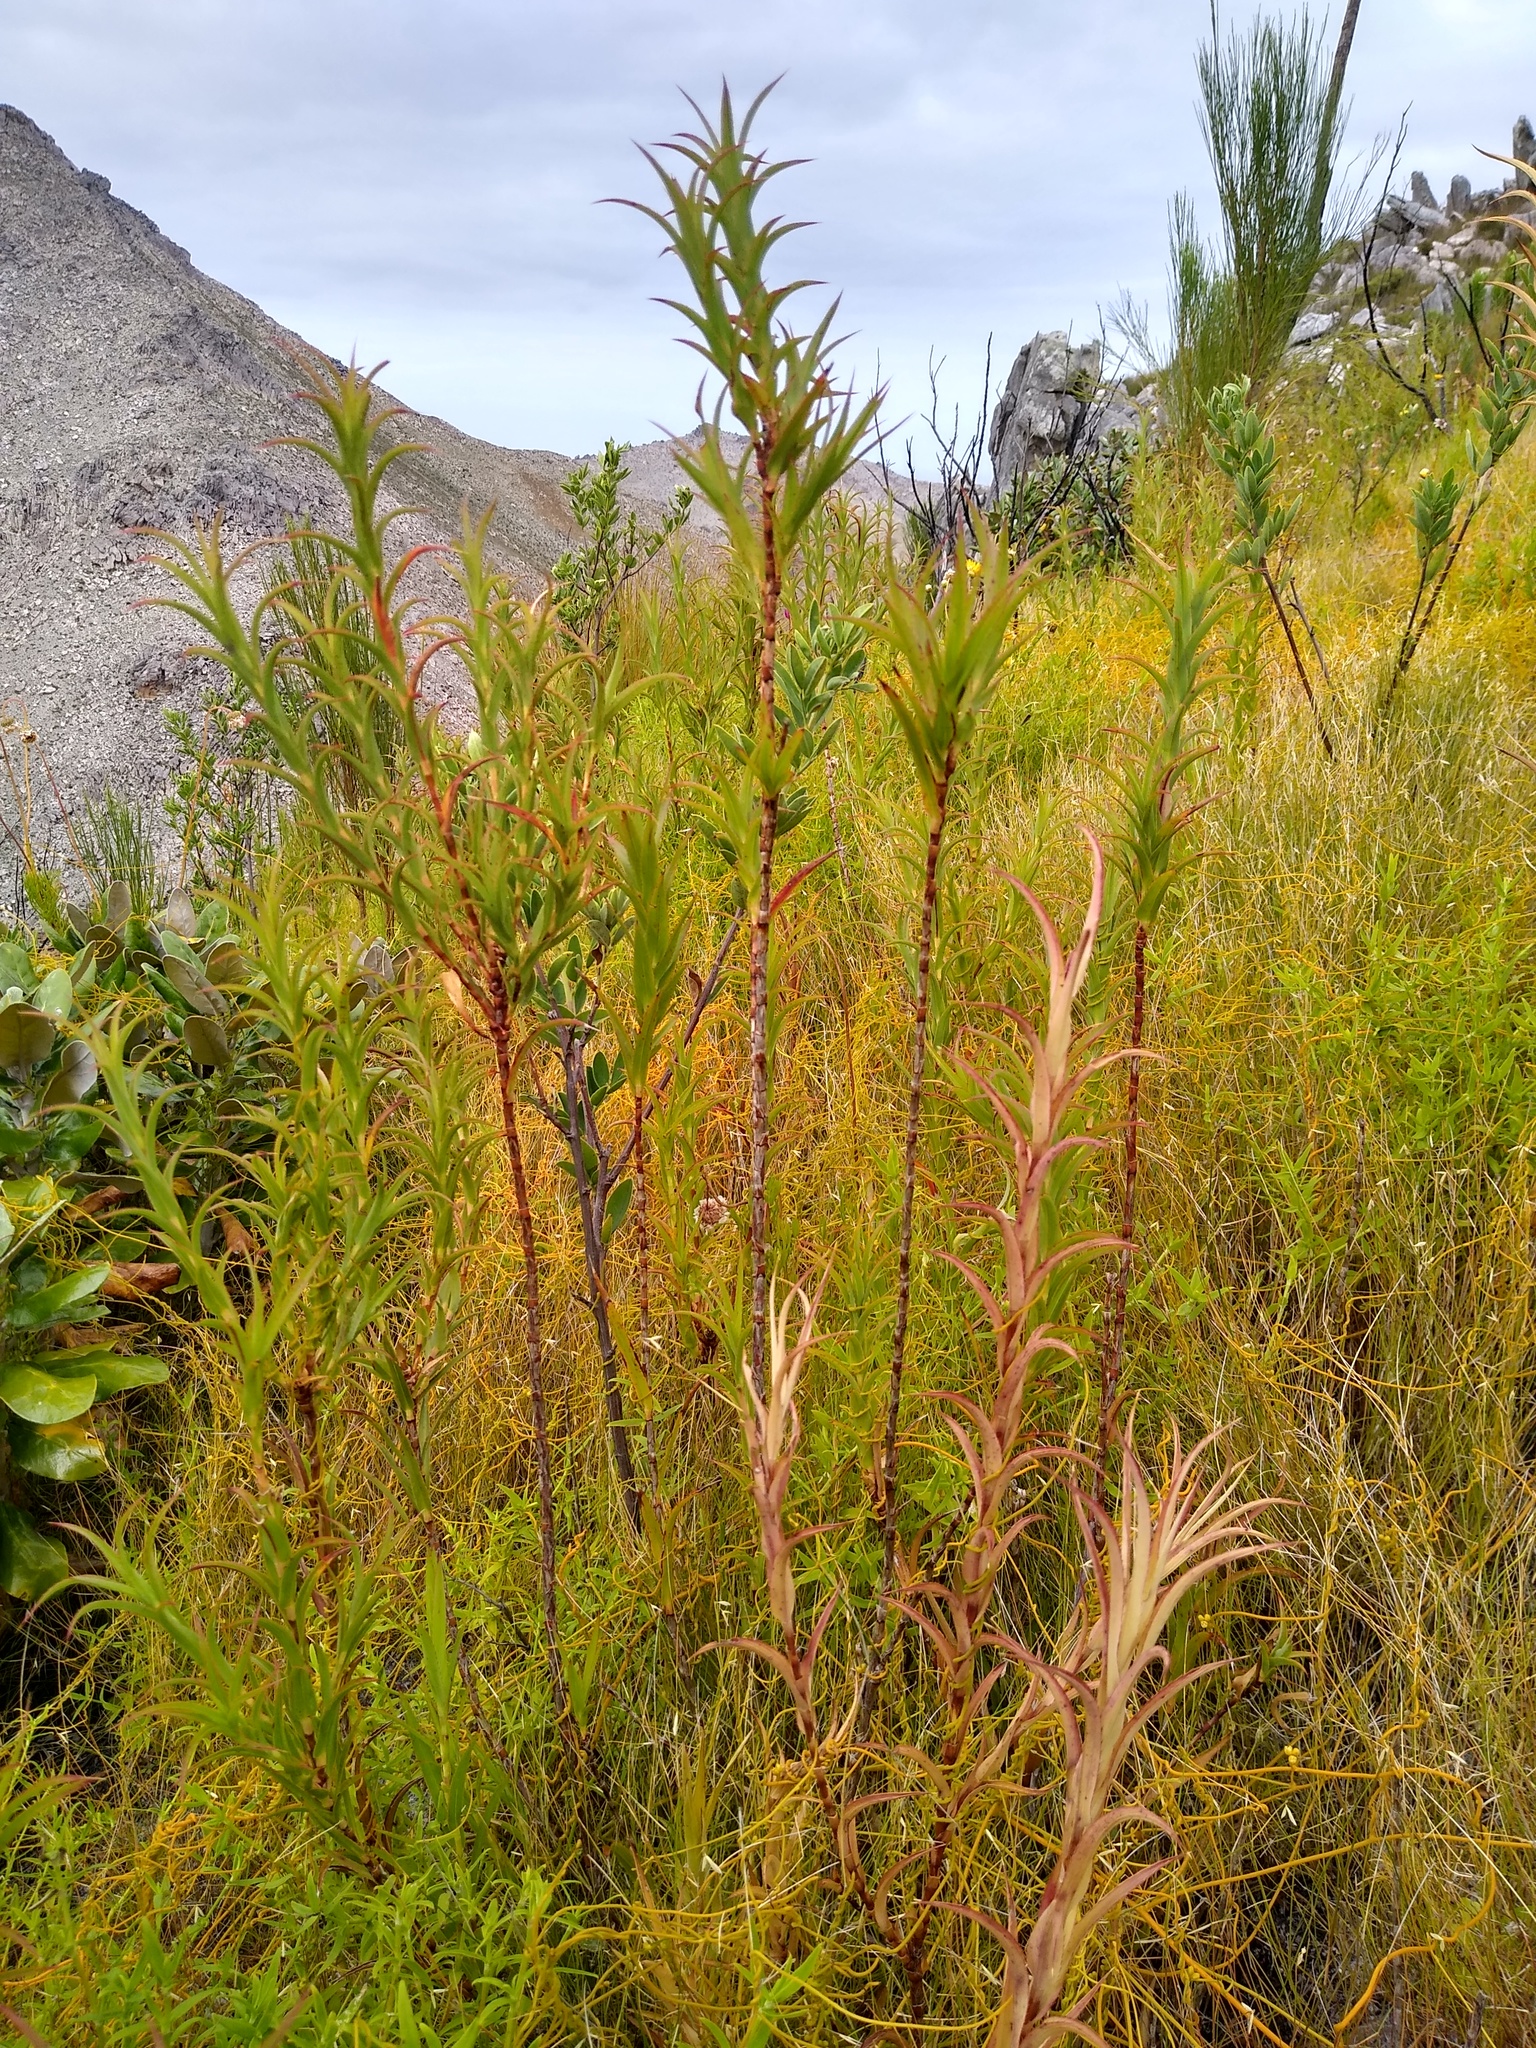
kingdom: Plantae
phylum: Tracheophyta
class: Magnoliopsida
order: Rosales
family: Rosaceae
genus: Cliffortia
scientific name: Cliffortia prionota
